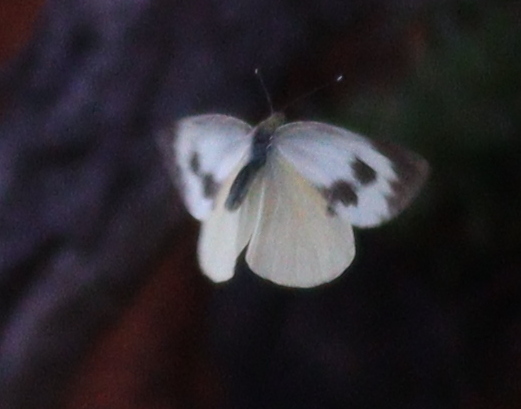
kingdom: Animalia
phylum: Arthropoda
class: Insecta
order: Lepidoptera
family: Pieridae
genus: Pieris
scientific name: Pieris cheiranthi
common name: Canary islands large white
